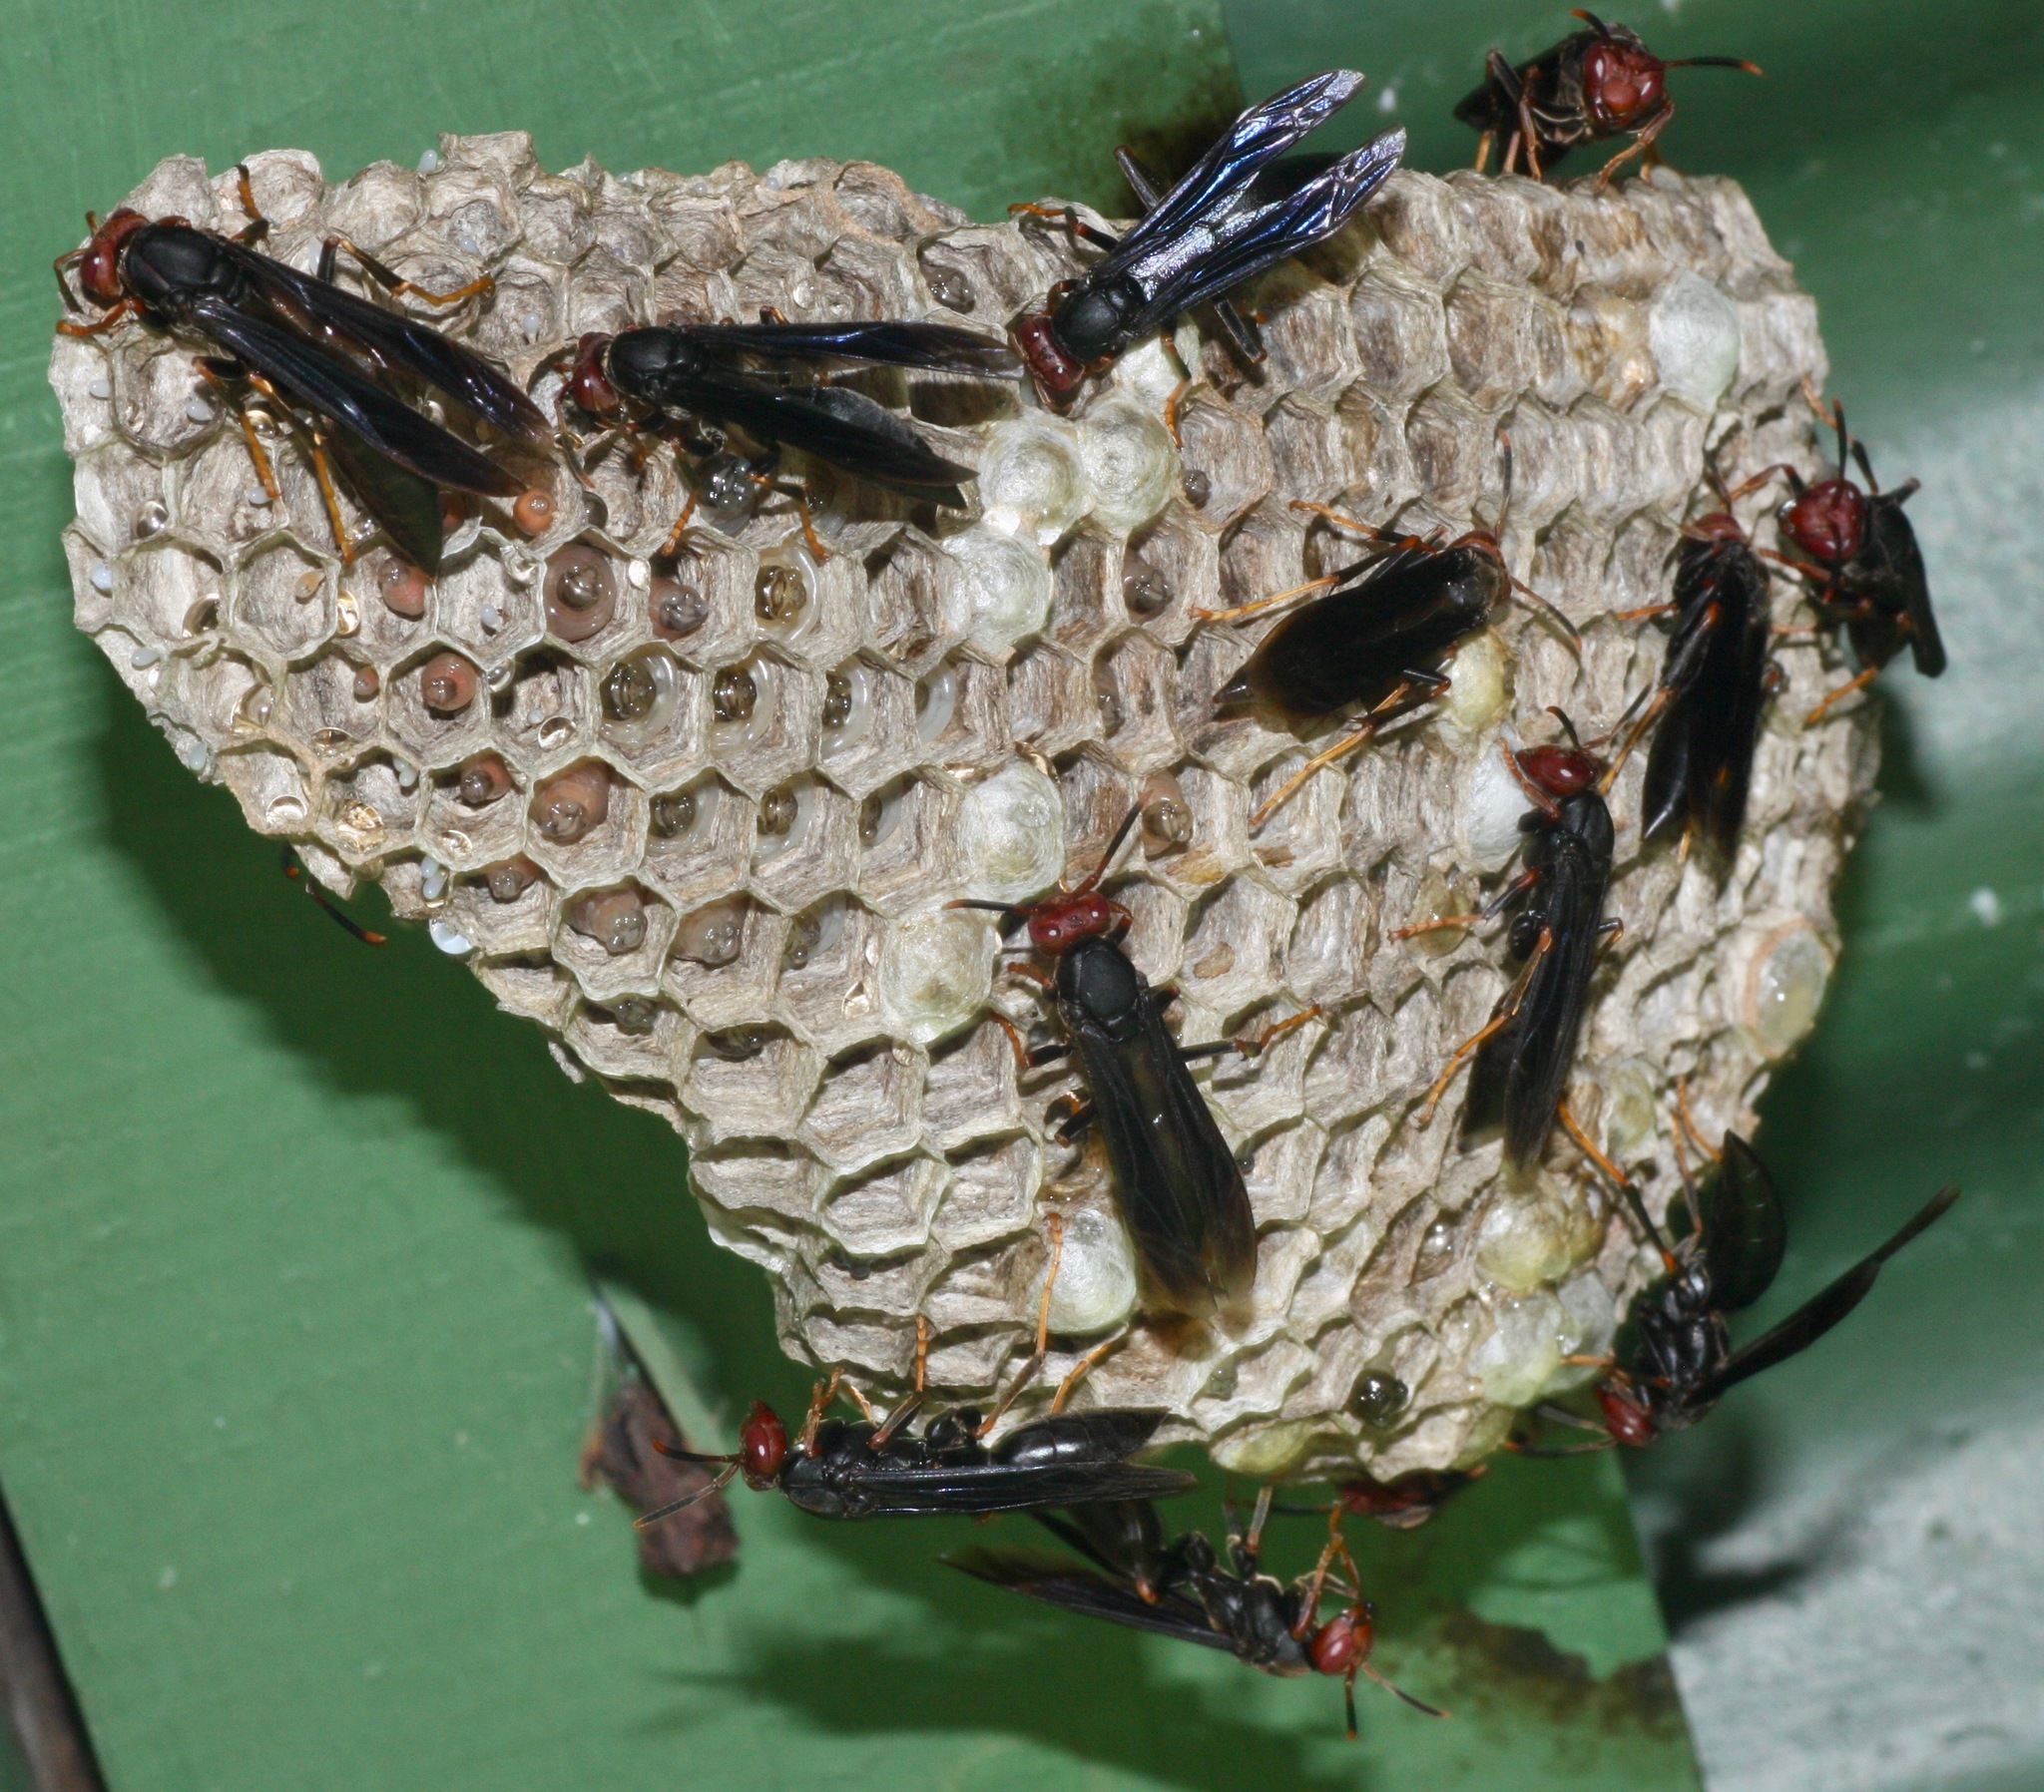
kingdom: Animalia
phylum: Arthropoda
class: Insecta
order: Hymenoptera
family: Eumenidae
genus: Polistes
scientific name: Polistes erythrocephalus
